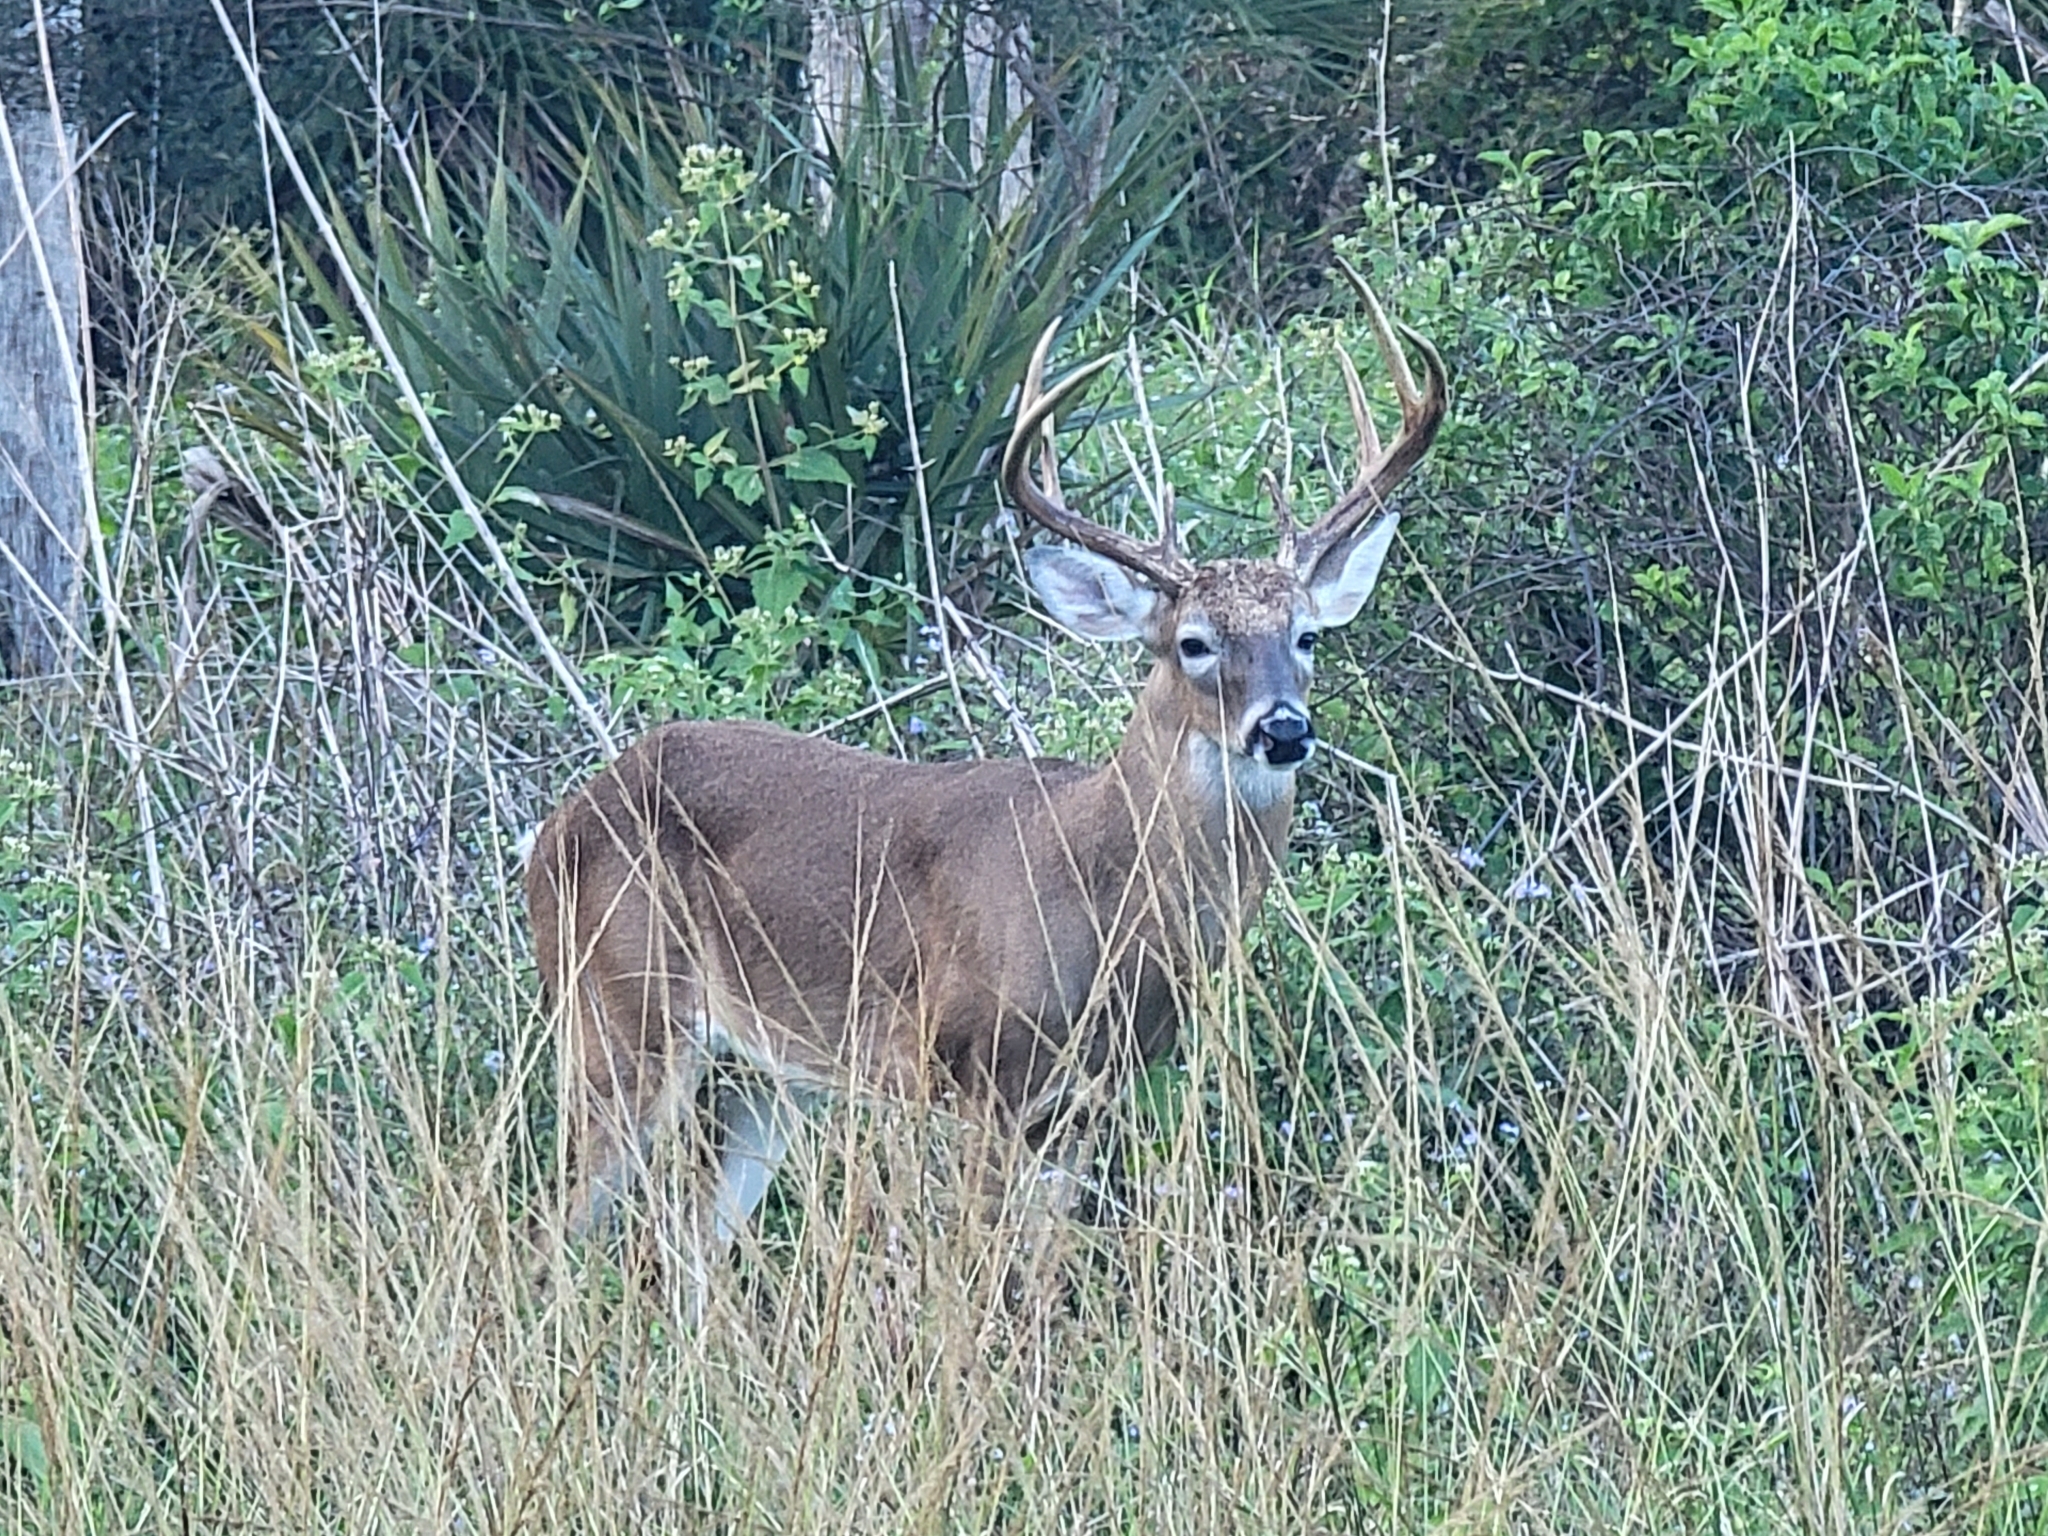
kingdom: Animalia
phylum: Chordata
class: Mammalia
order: Artiodactyla
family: Cervidae
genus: Odocoileus
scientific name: Odocoileus virginianus
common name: White-tailed deer
